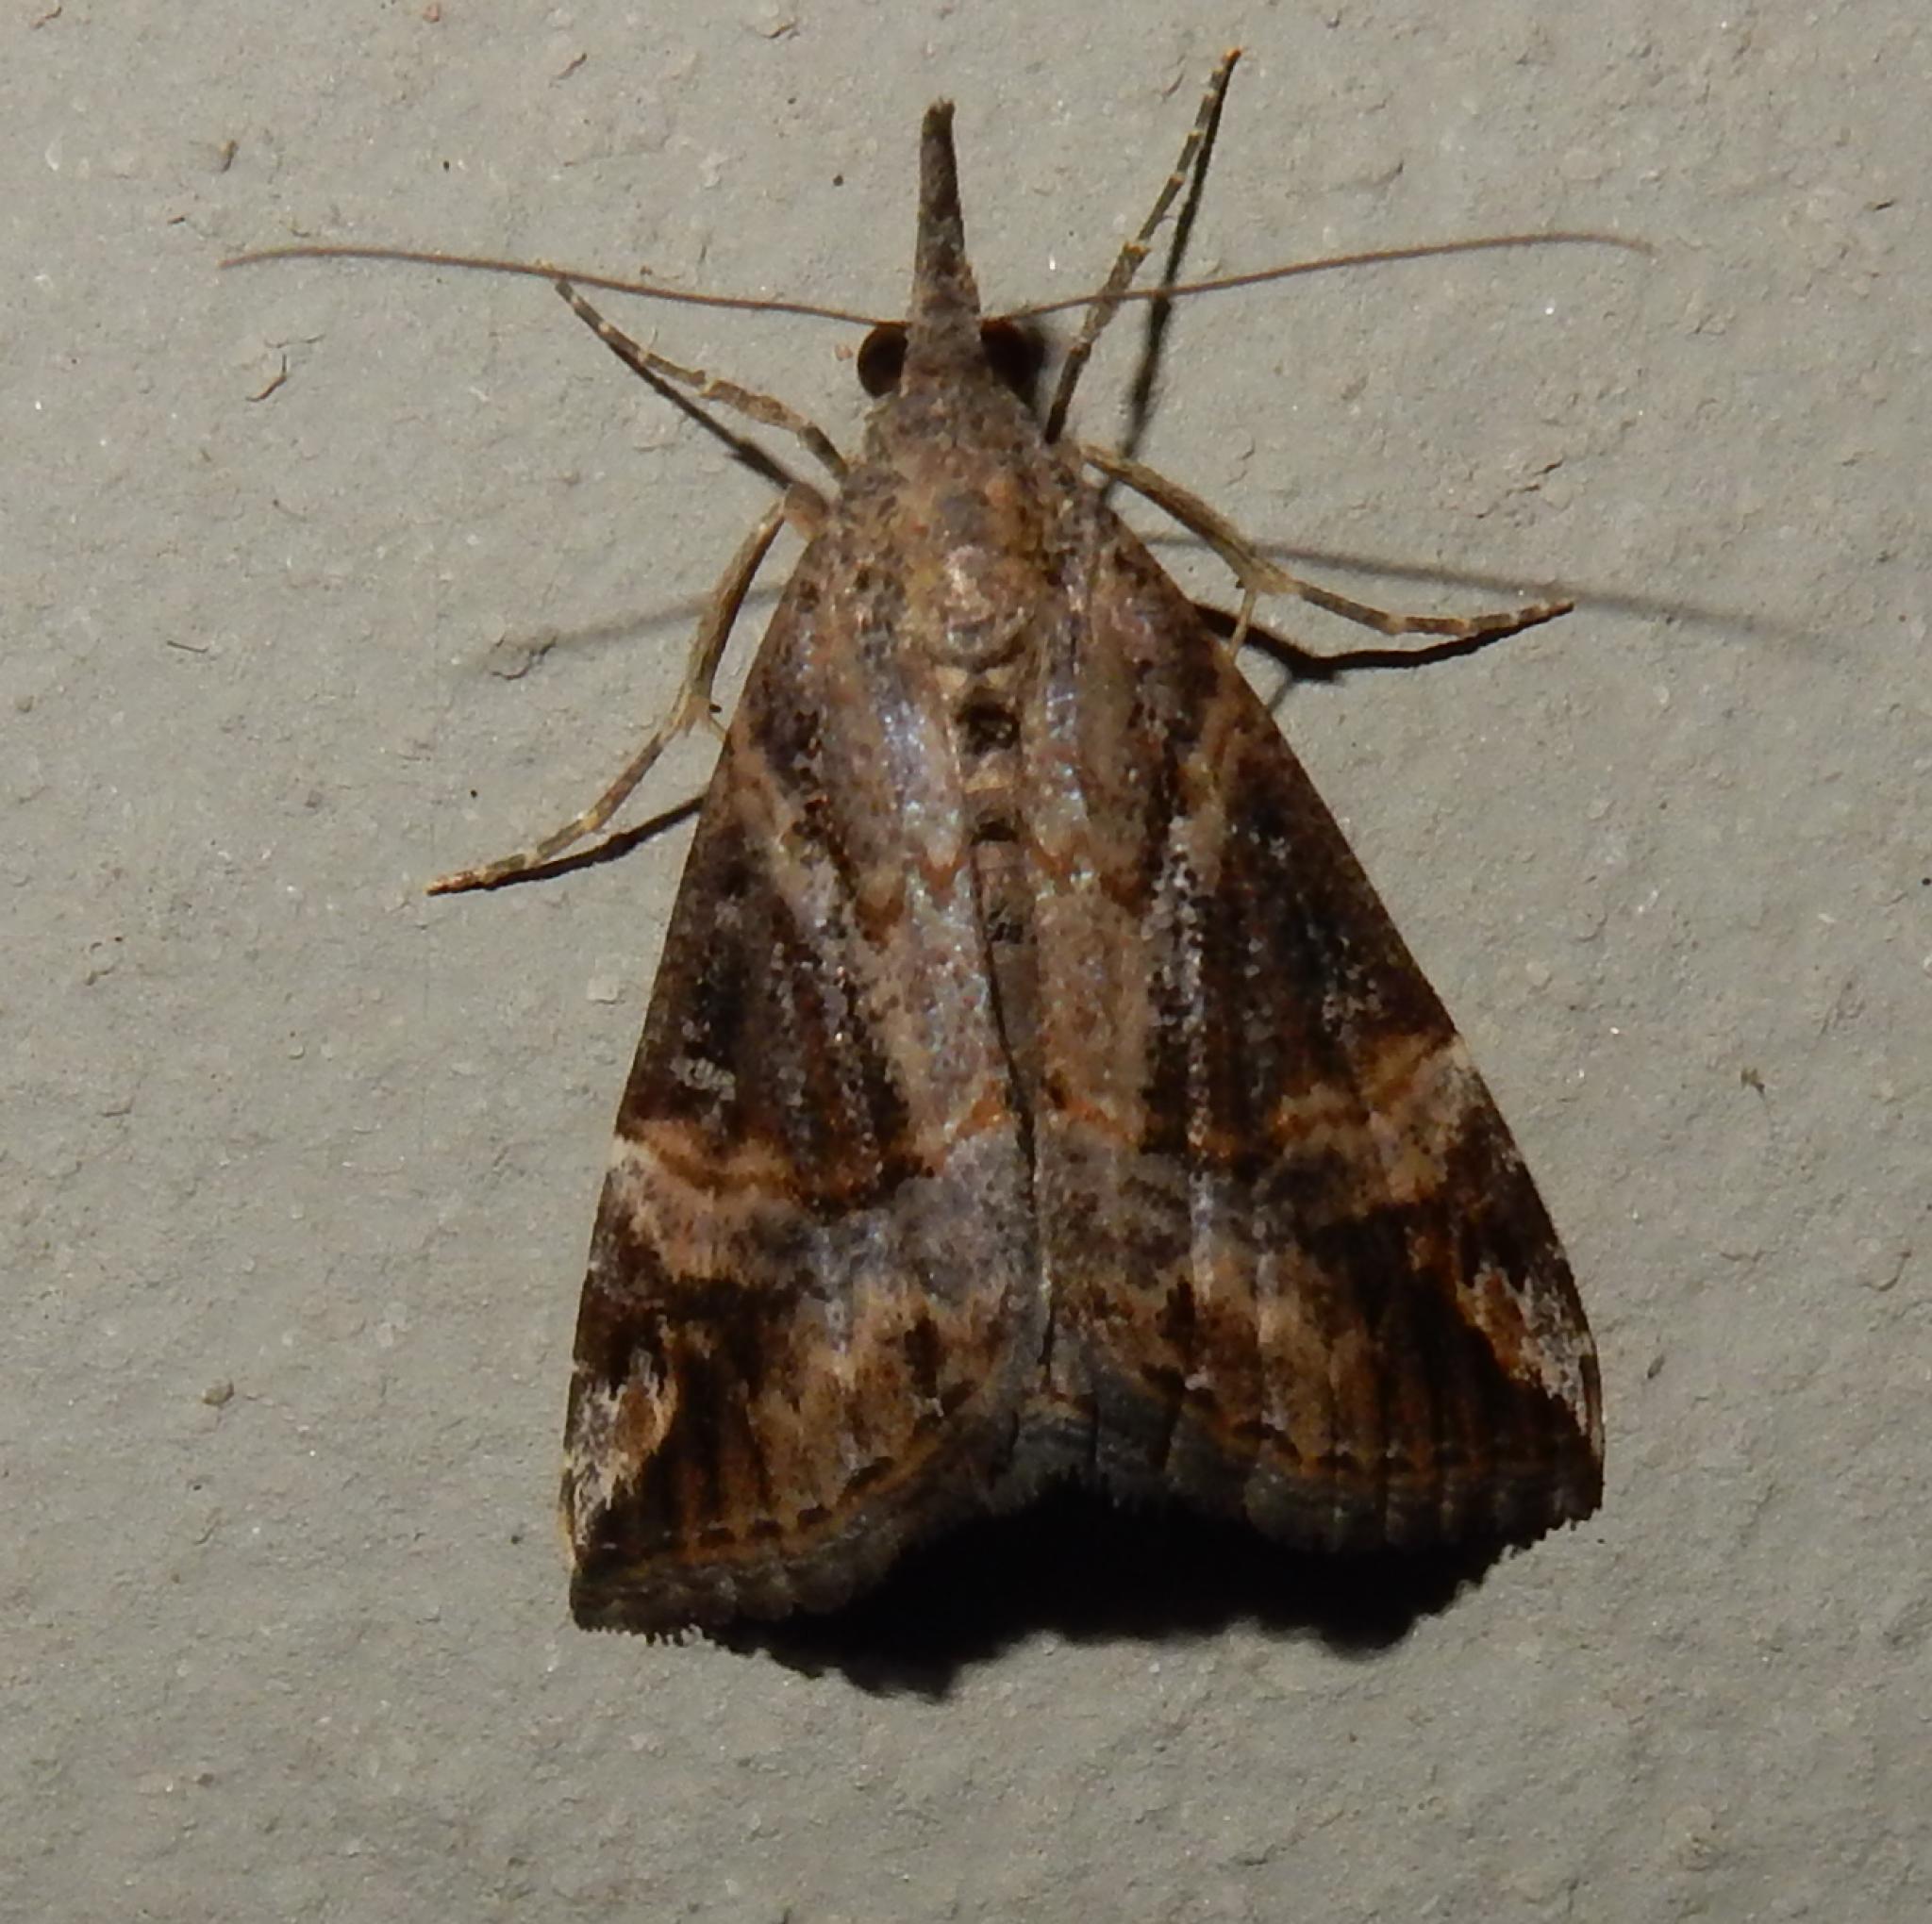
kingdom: Animalia
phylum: Arthropoda
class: Insecta
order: Lepidoptera
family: Erebidae
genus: Hypena
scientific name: Hypena jussalis
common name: Moth
